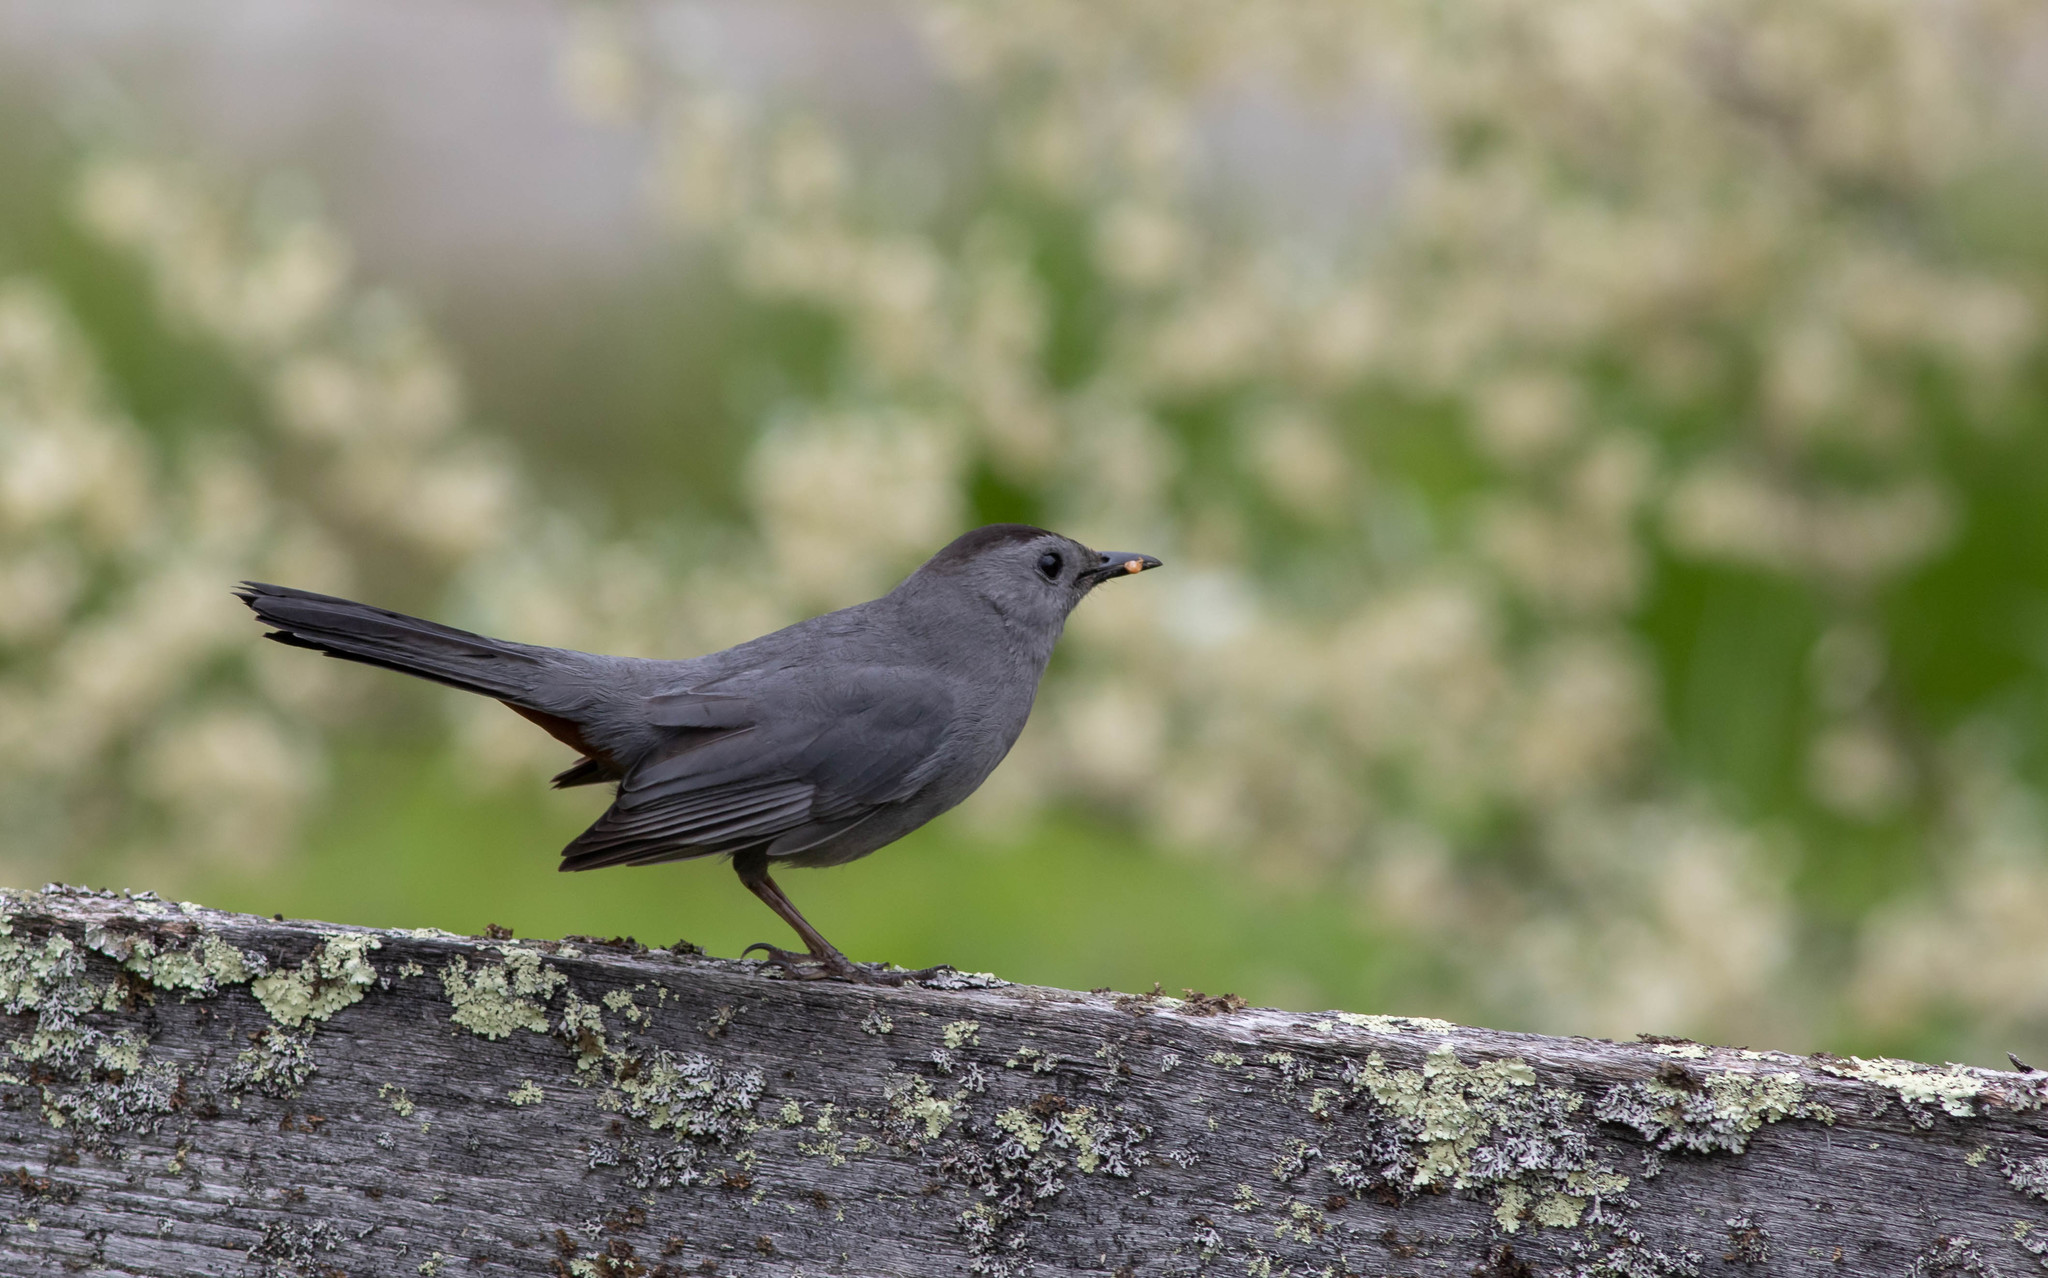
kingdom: Animalia
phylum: Chordata
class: Aves
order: Passeriformes
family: Mimidae
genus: Dumetella
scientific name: Dumetella carolinensis
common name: Gray catbird
